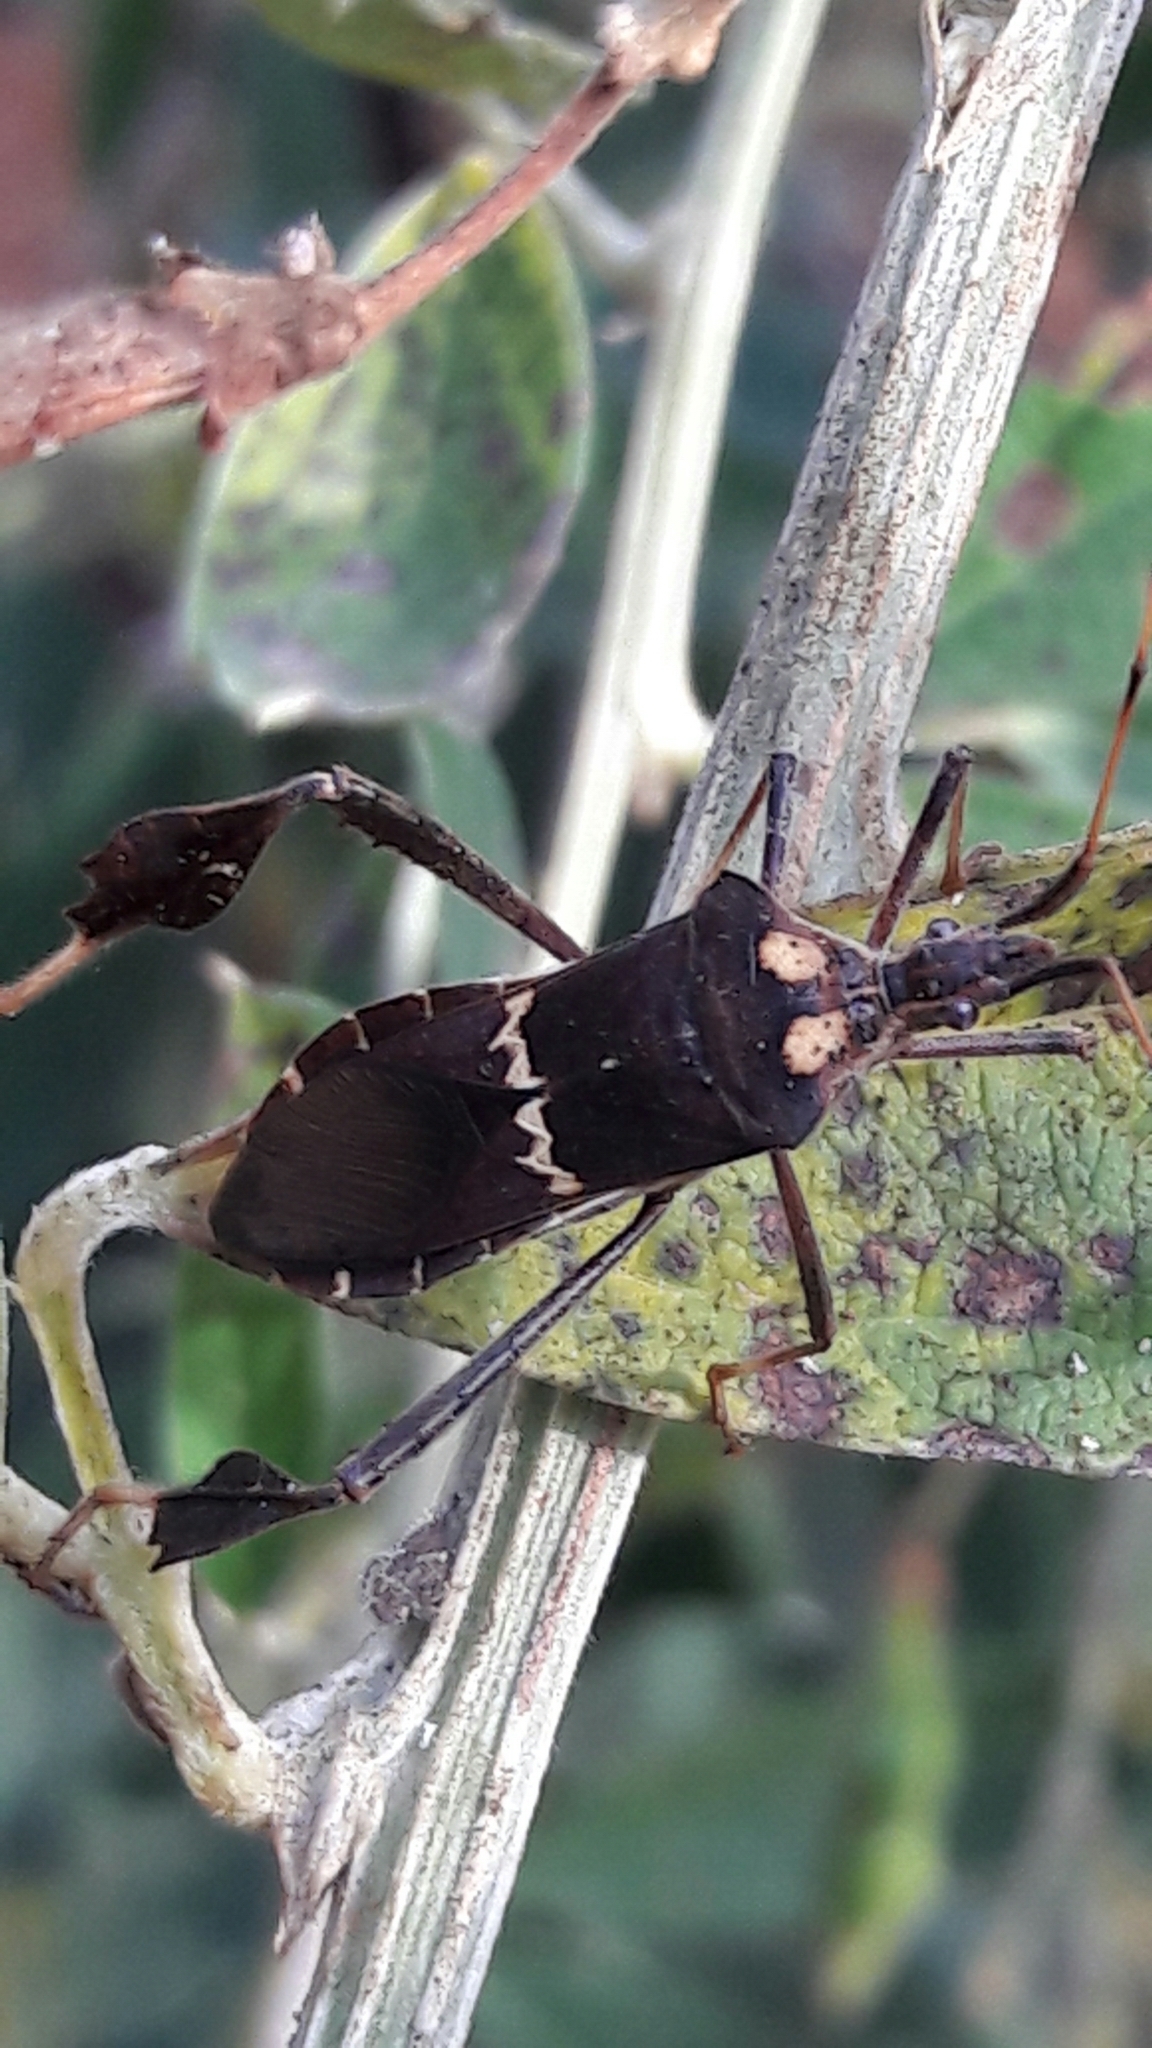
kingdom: Animalia
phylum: Arthropoda
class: Insecta
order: Hemiptera
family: Coreidae
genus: Leptoglossus
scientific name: Leptoglossus zonatus
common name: Large-legged bug
